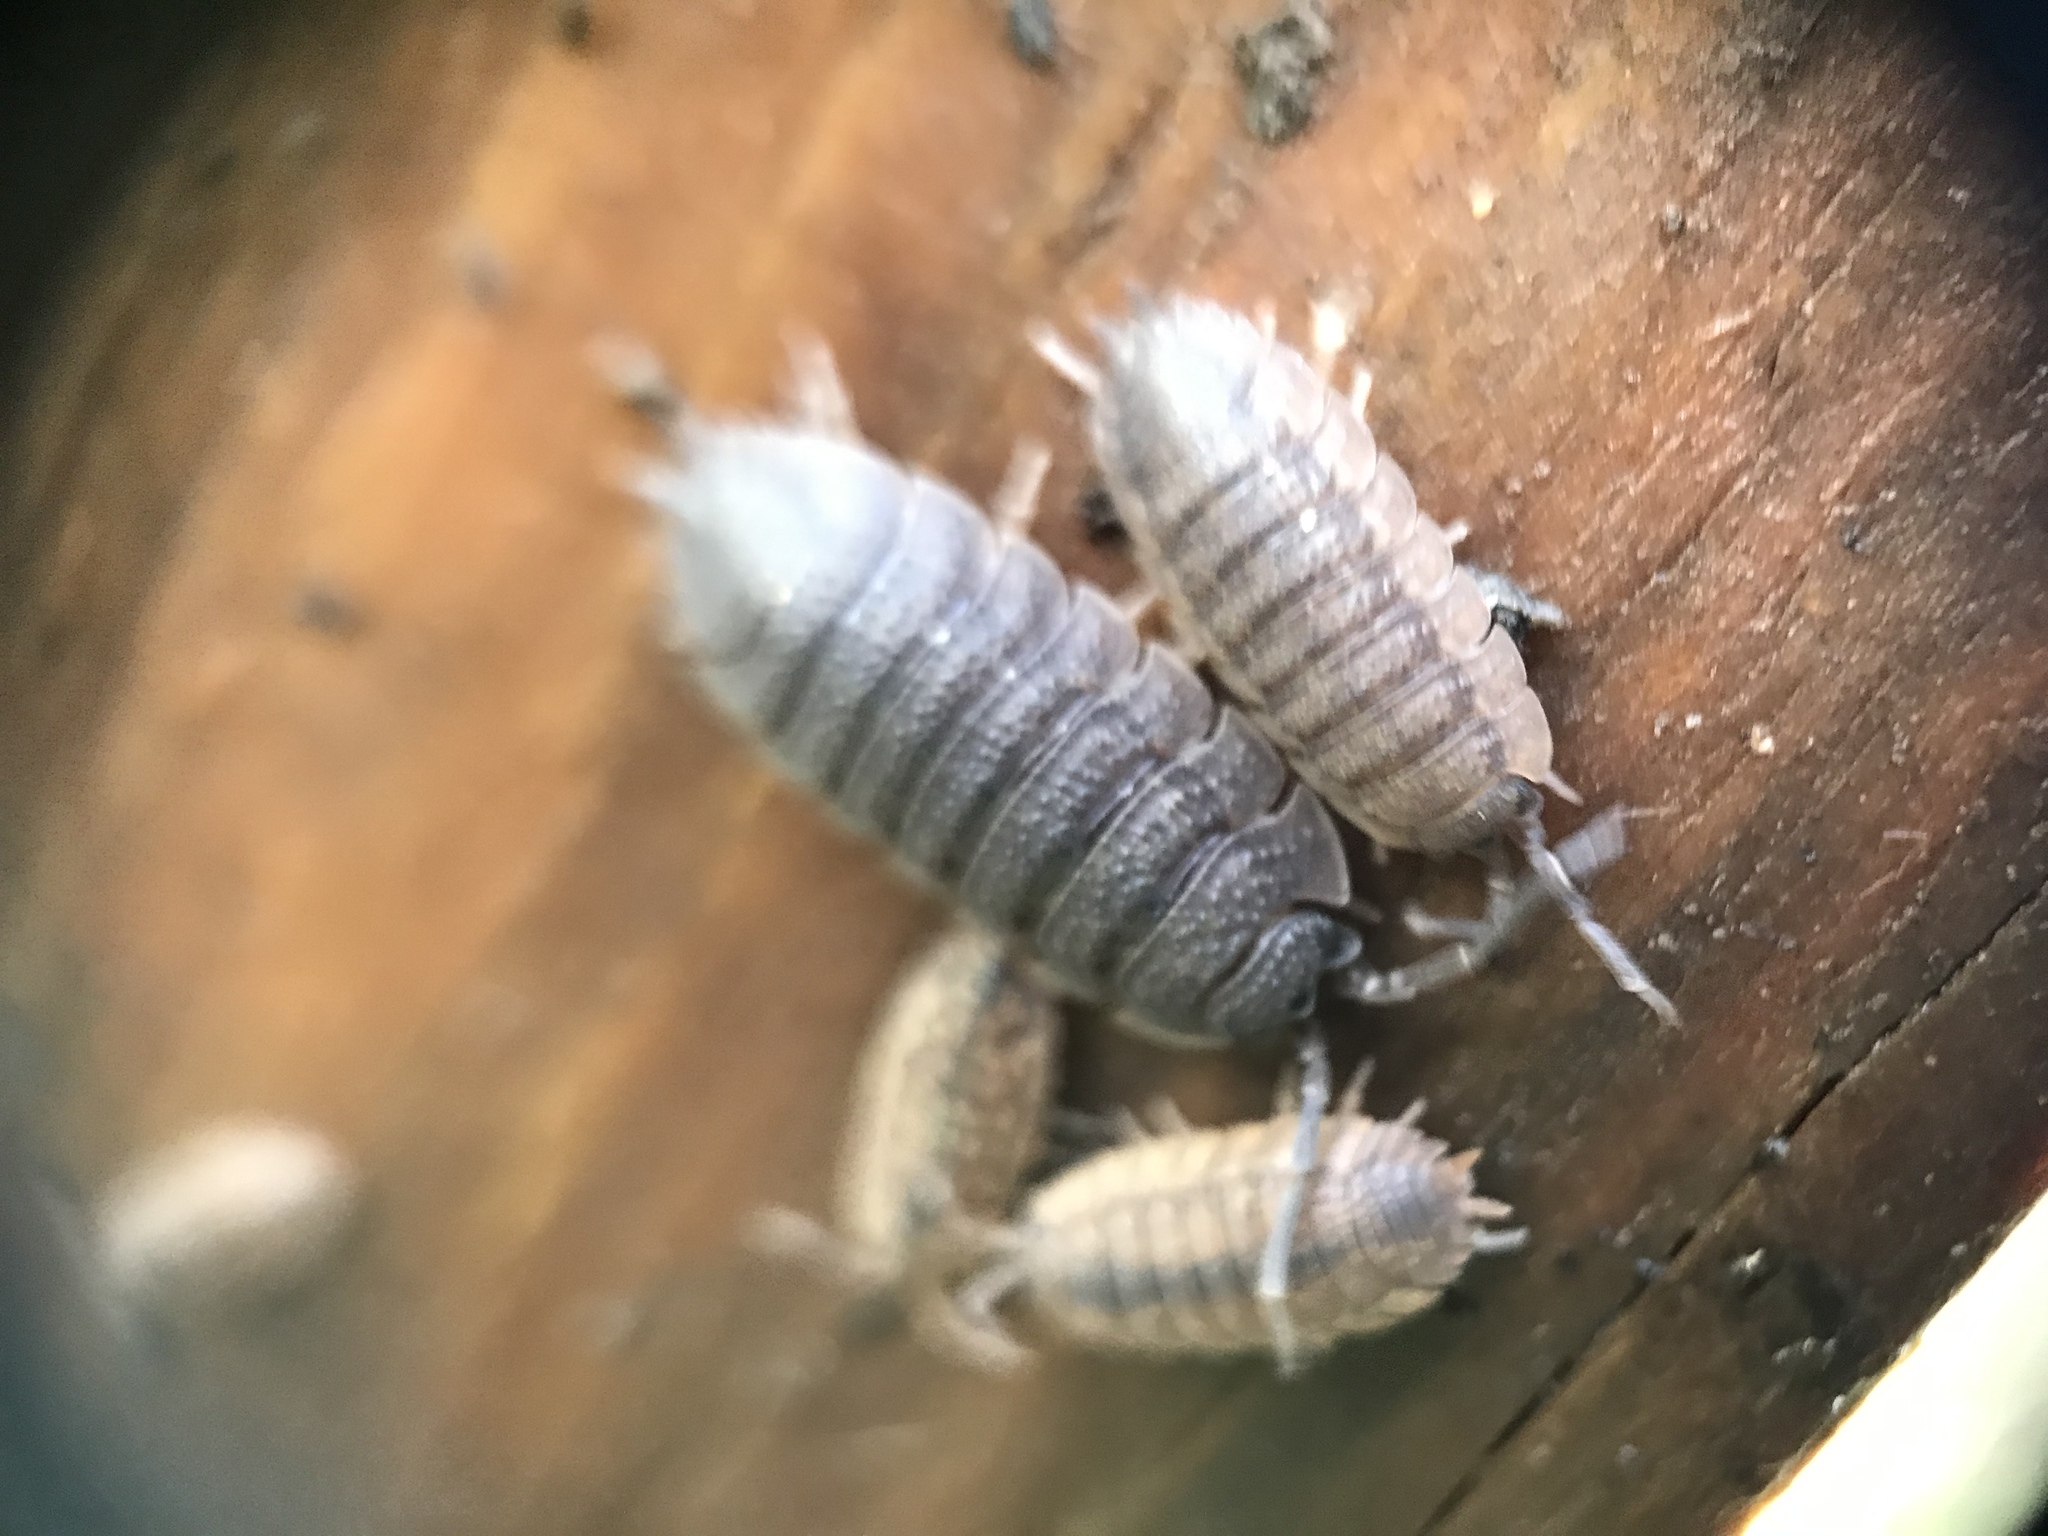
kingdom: Animalia
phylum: Arthropoda
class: Malacostraca
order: Isopoda
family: Porcellionidae
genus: Porcellio
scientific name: Porcellio scaber
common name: Common rough woodlouse
